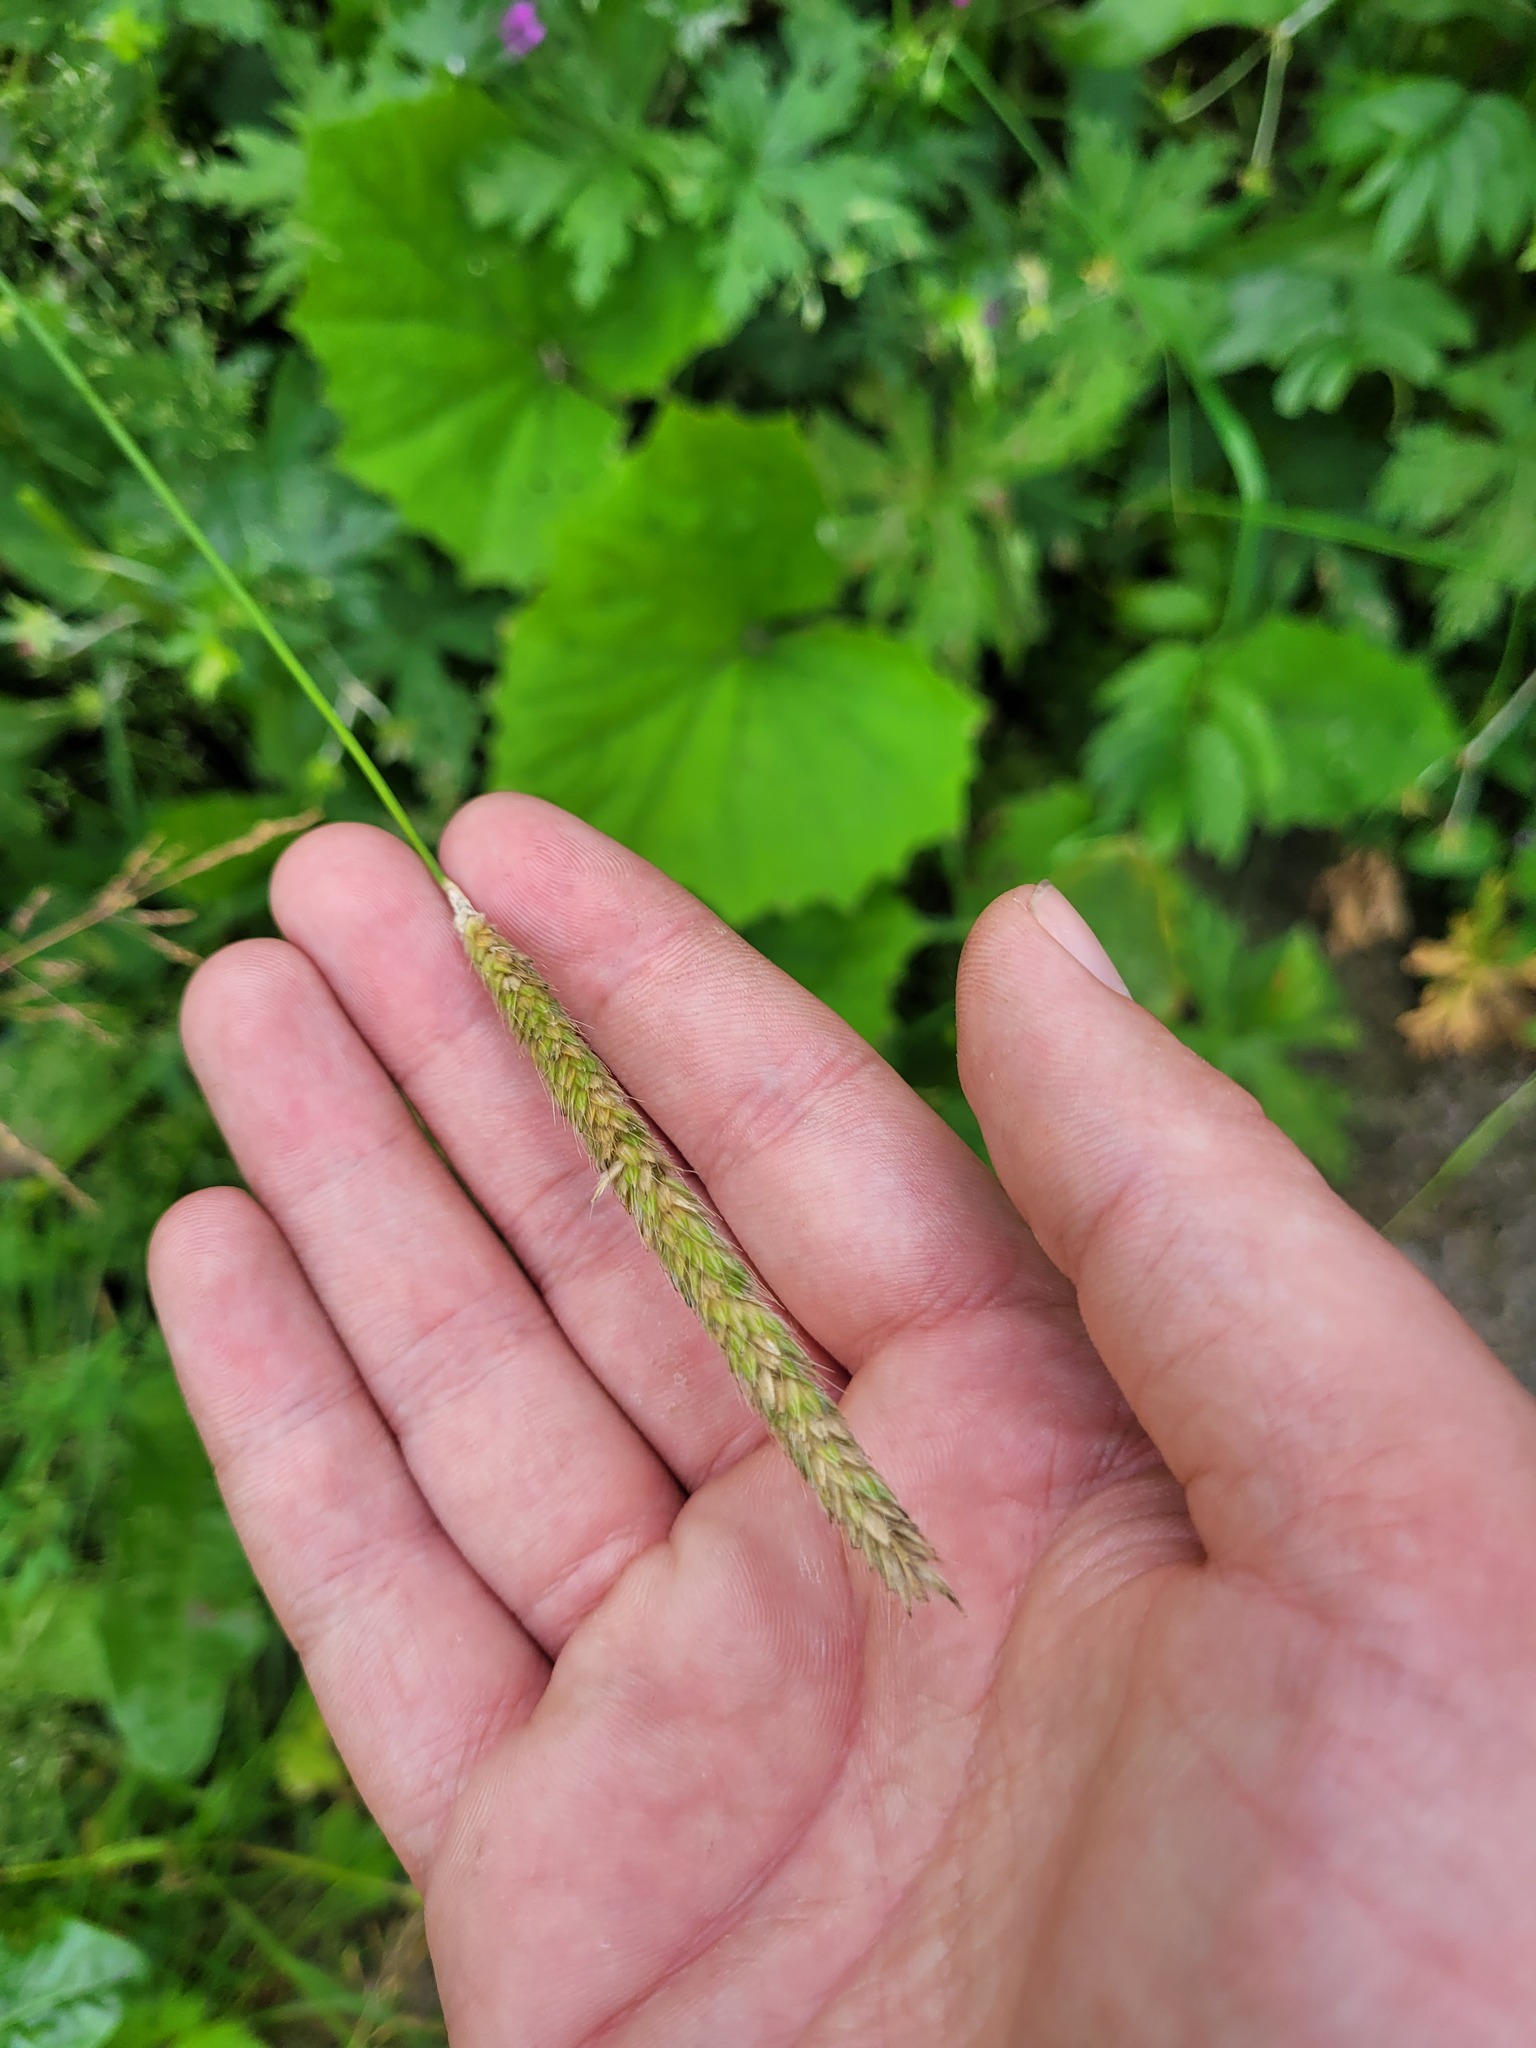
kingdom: Plantae
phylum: Tracheophyta
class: Liliopsida
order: Poales
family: Poaceae
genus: Alopecurus
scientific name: Alopecurus pratensis
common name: Meadow foxtail
